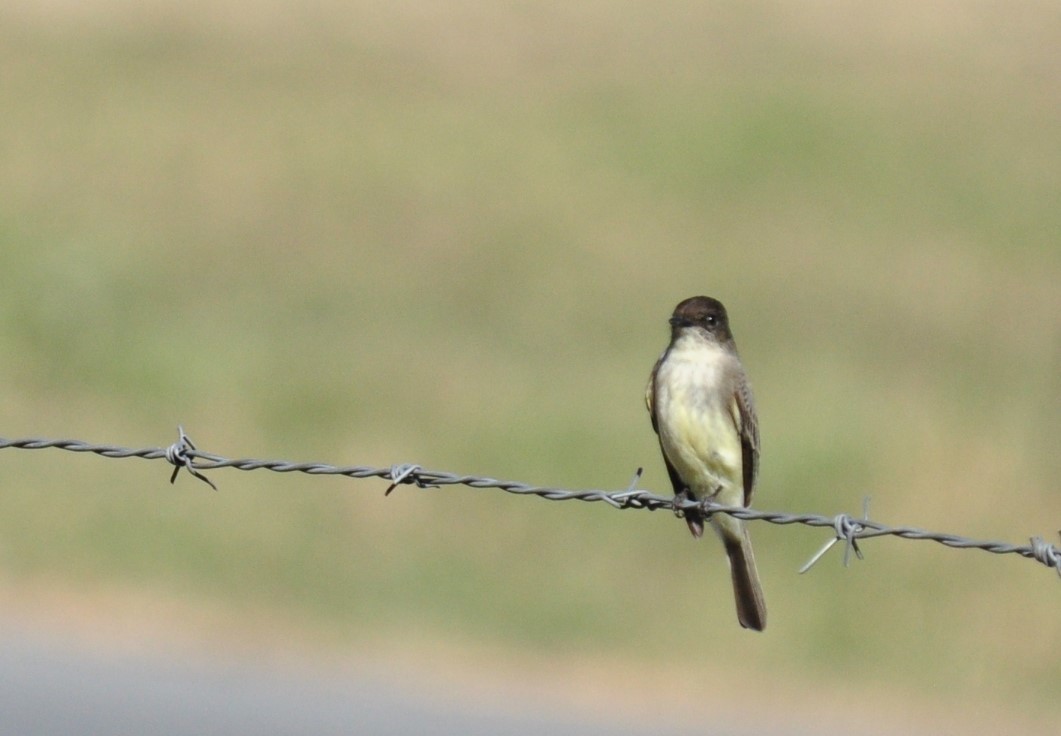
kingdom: Animalia
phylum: Chordata
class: Aves
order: Passeriformes
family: Tyrannidae
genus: Sayornis
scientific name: Sayornis phoebe
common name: Eastern phoebe
